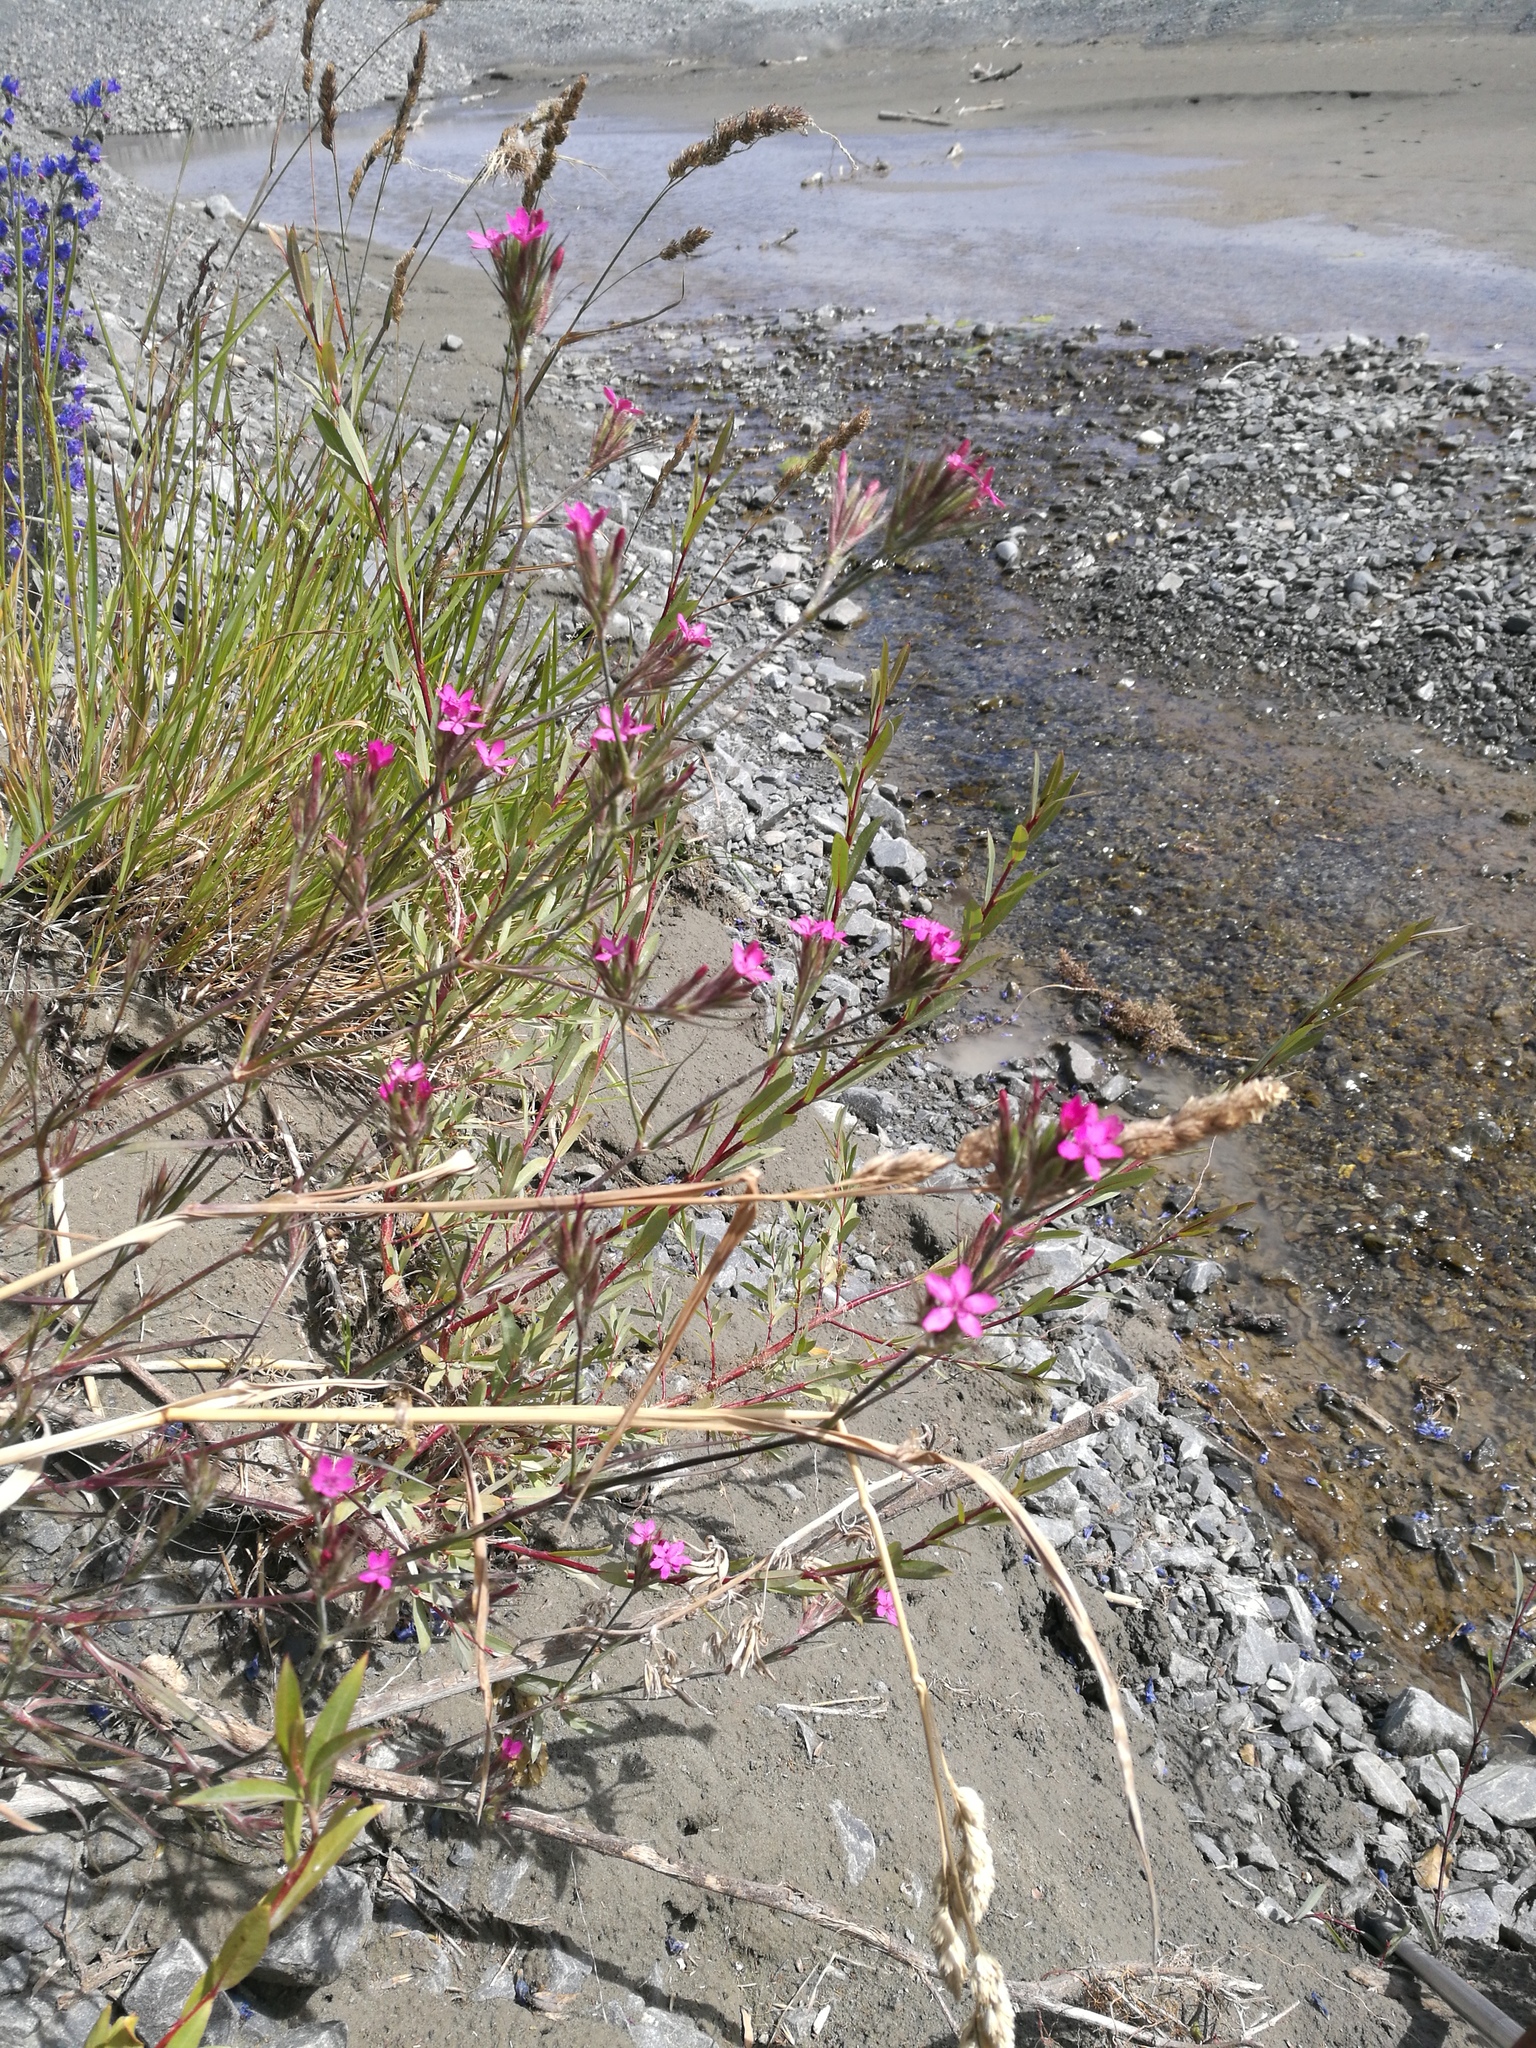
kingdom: Plantae
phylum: Tracheophyta
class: Magnoliopsida
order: Caryophyllales
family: Caryophyllaceae
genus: Dianthus
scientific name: Dianthus armeria
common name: Deptford pink
